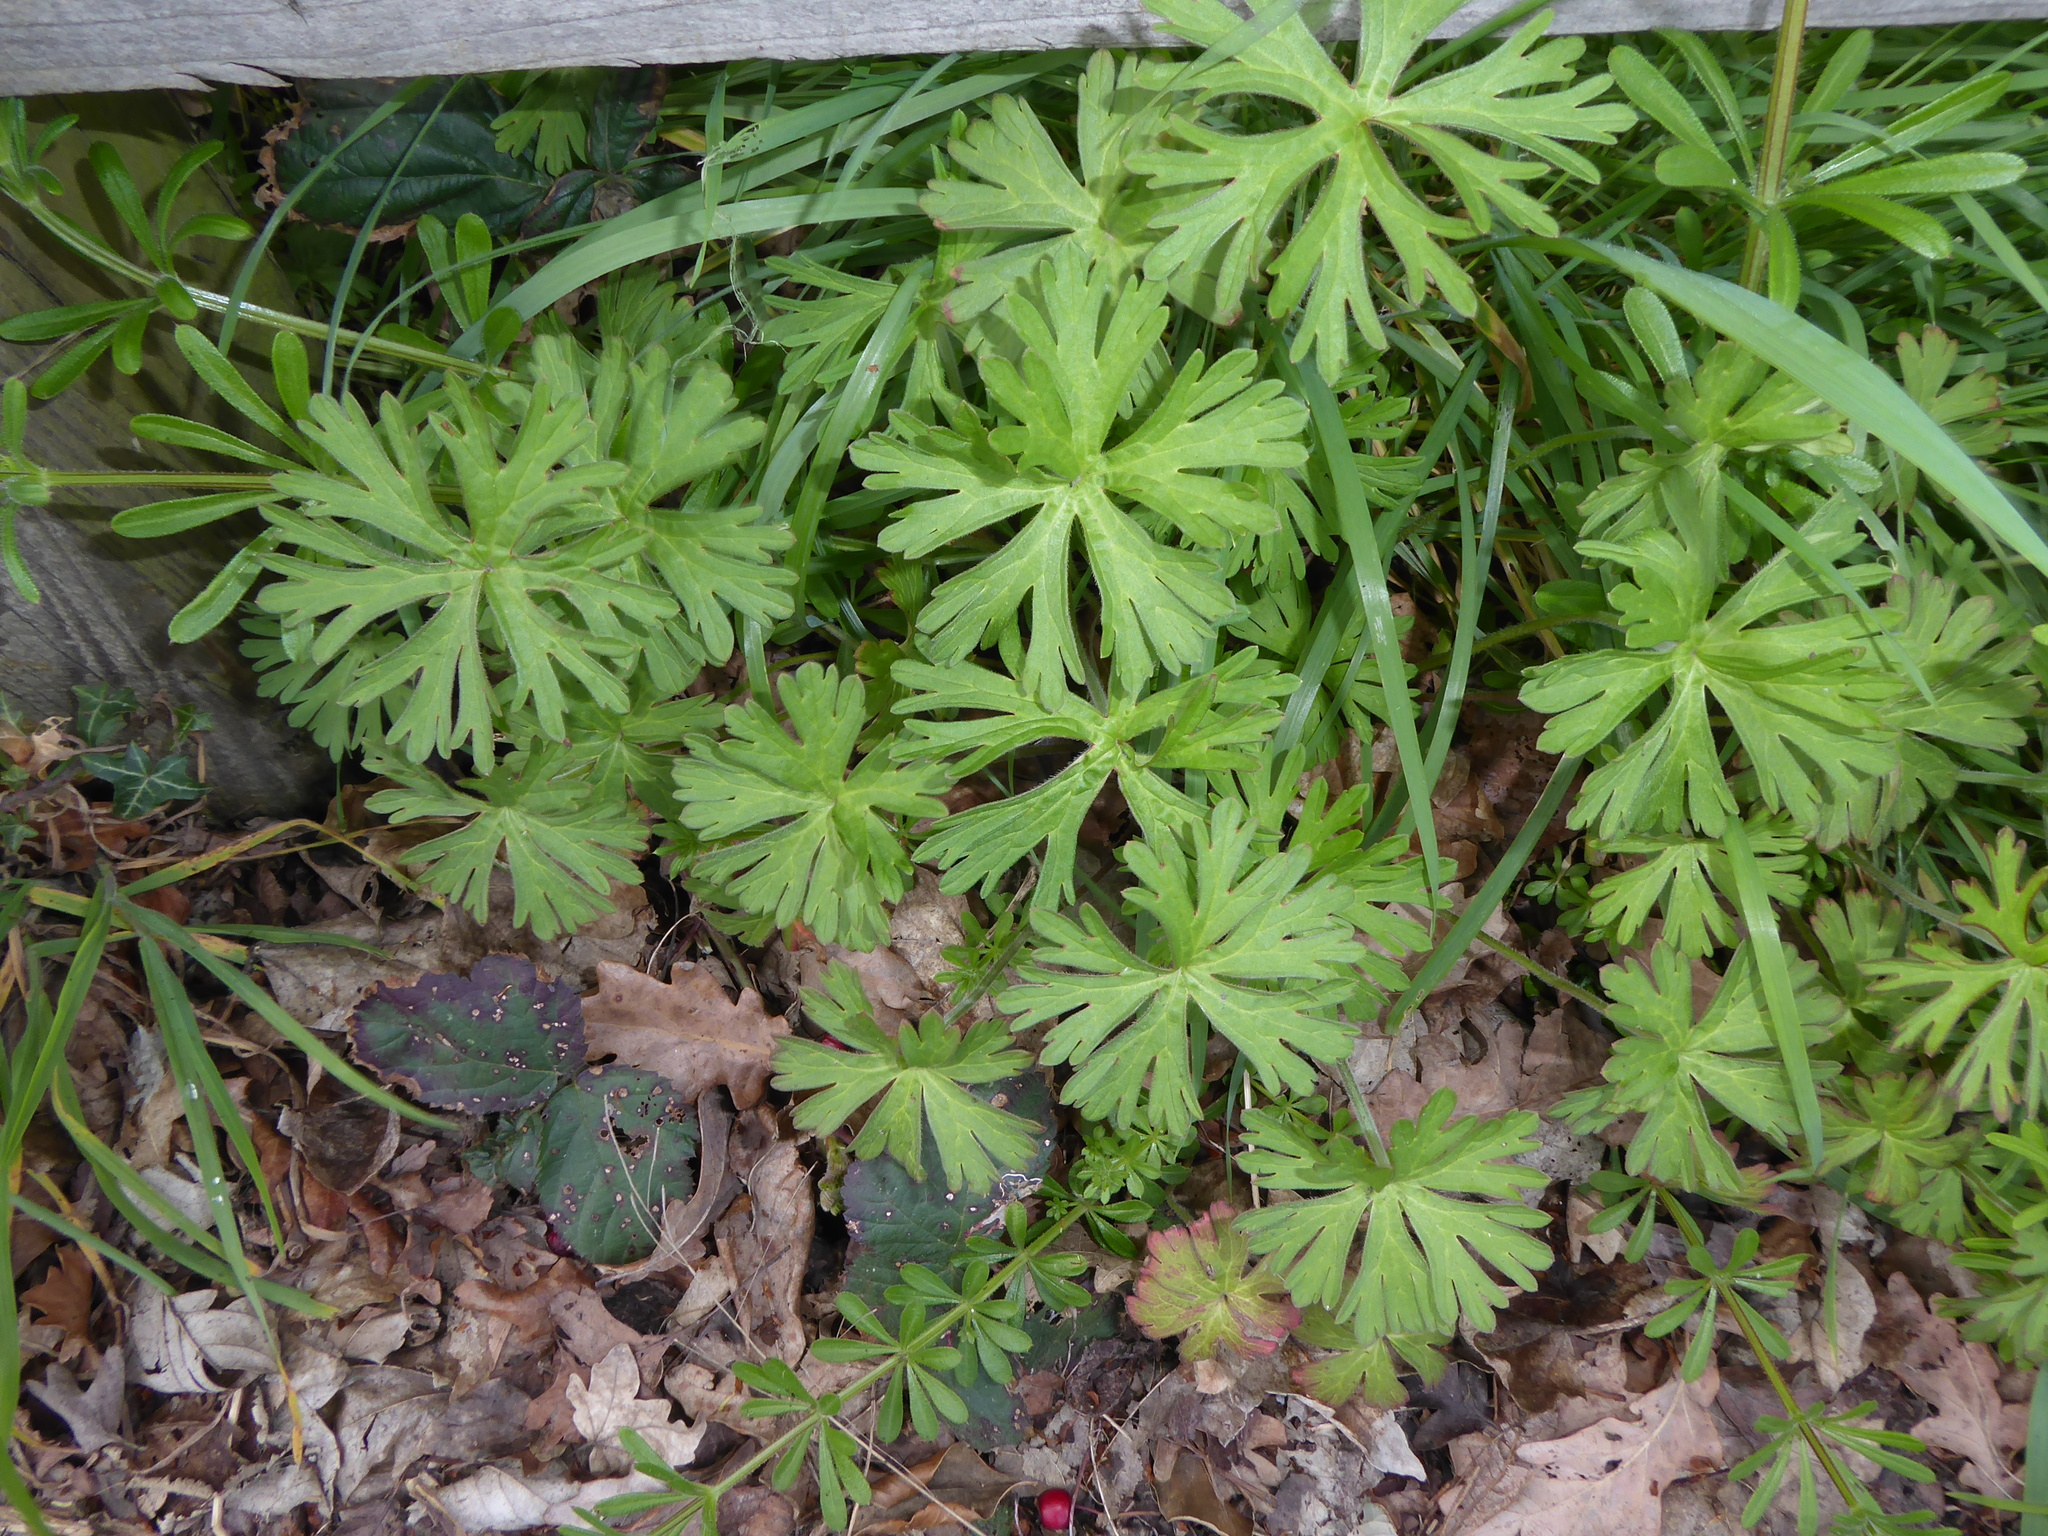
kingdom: Plantae
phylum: Tracheophyta
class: Magnoliopsida
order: Geraniales
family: Geraniaceae
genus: Geranium
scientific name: Geranium dissectum
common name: Cut-leaved crane's-bill
